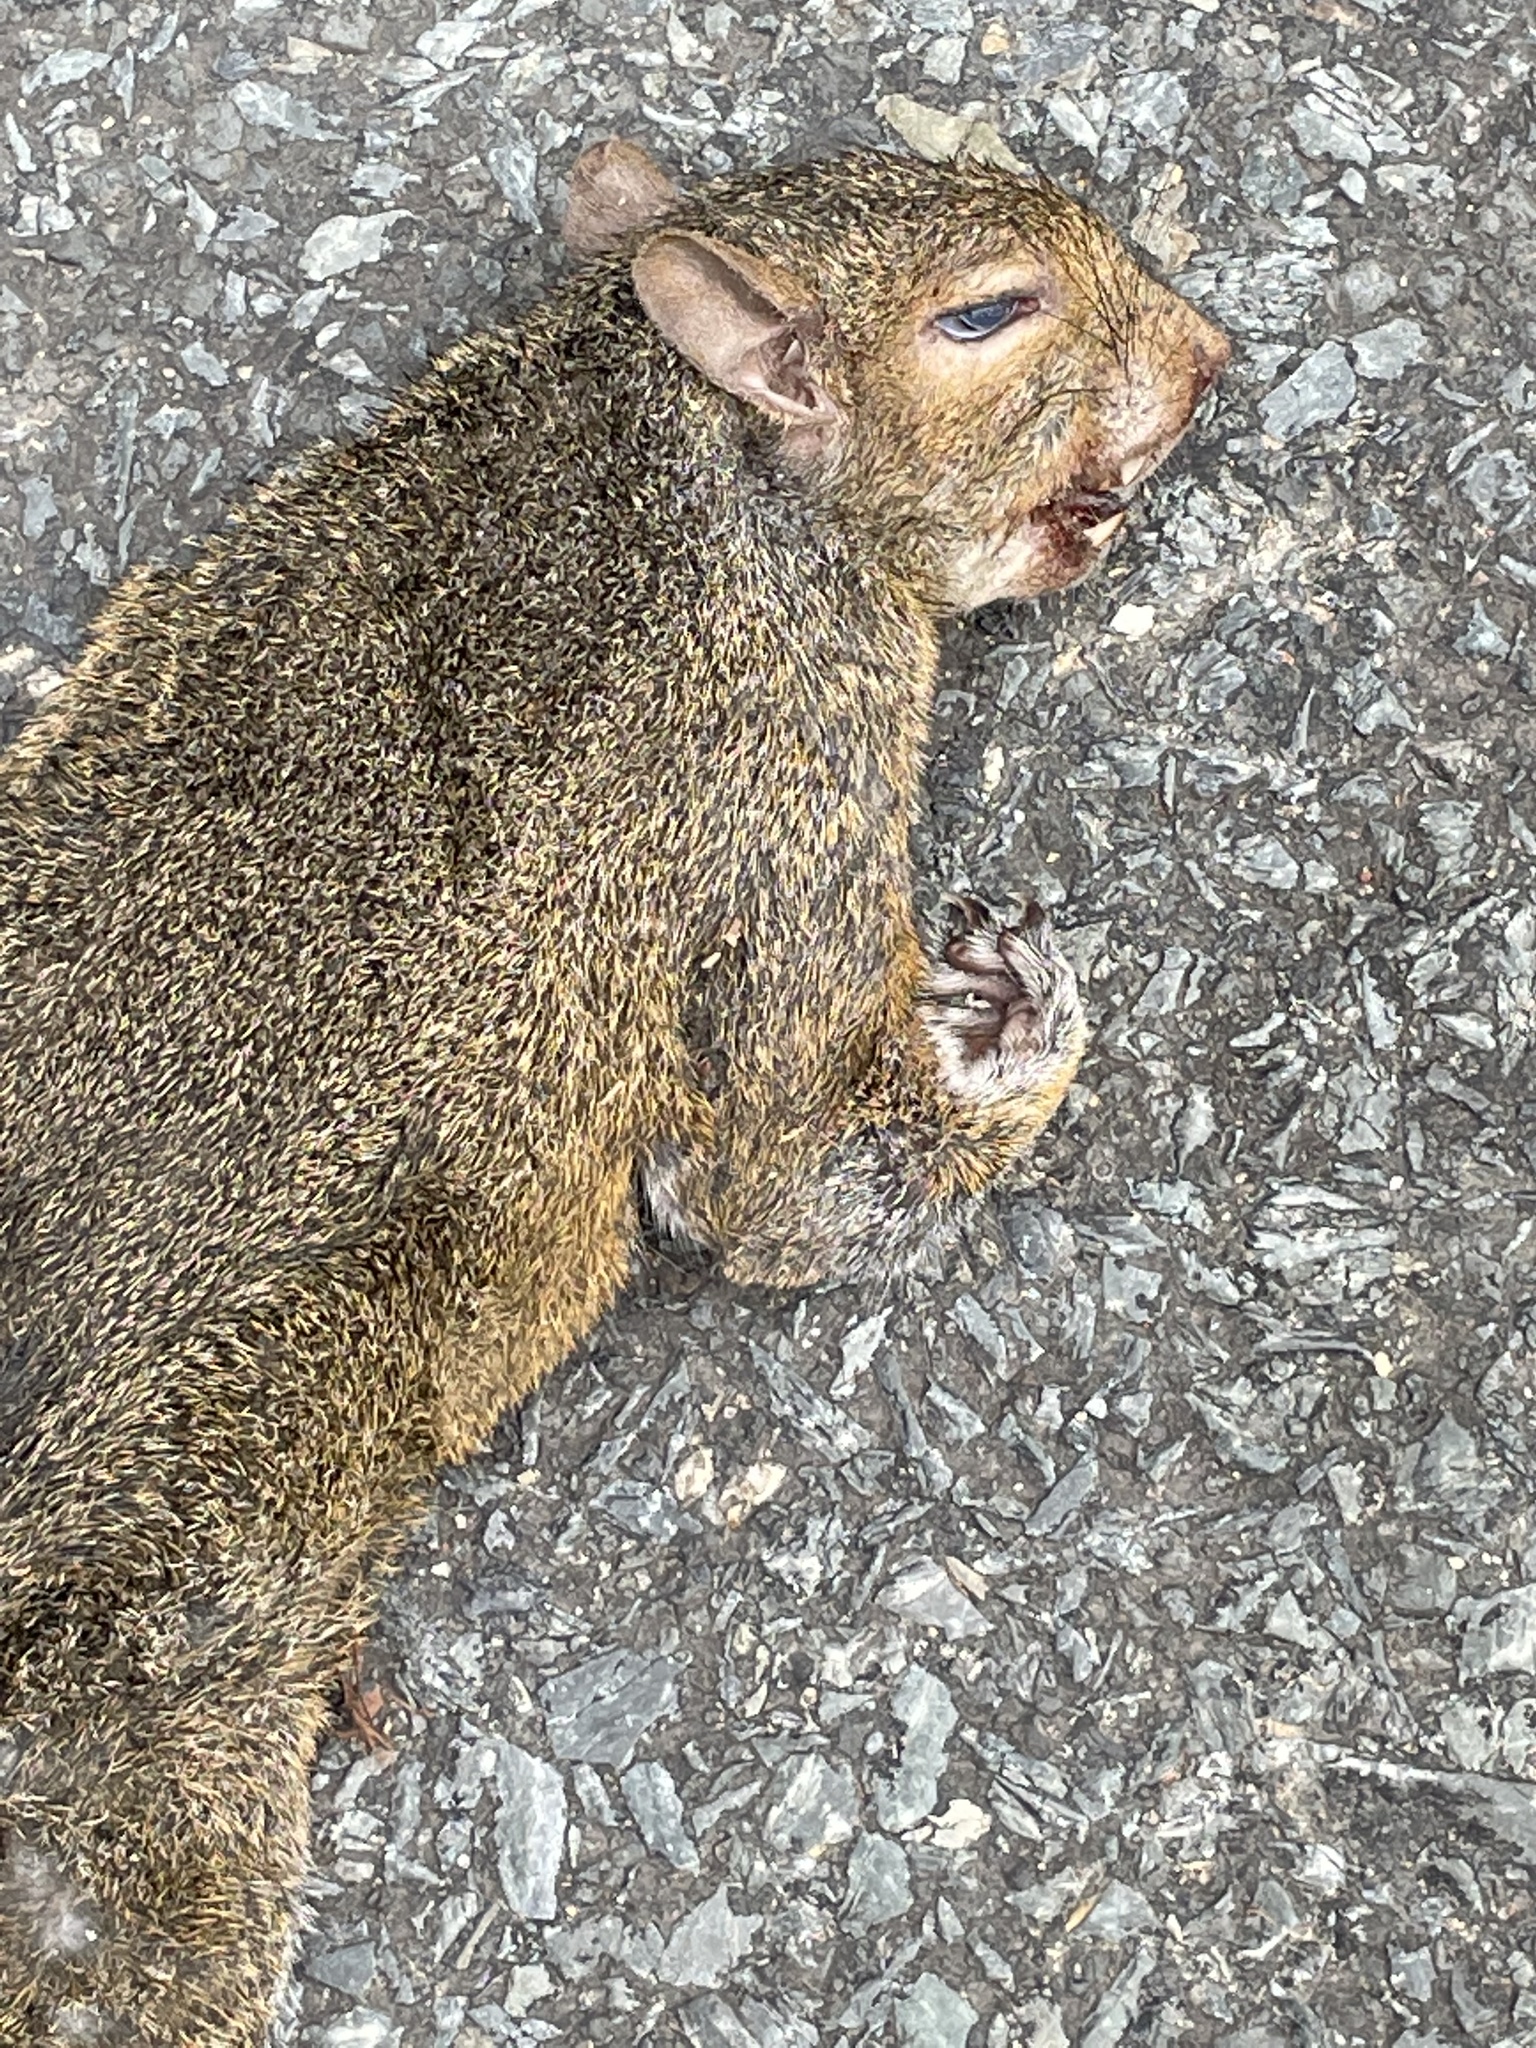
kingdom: Animalia
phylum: Chordata
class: Mammalia
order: Rodentia
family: Sciuridae
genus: Sciurus
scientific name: Sciurus carolinensis
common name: Eastern gray squirrel
